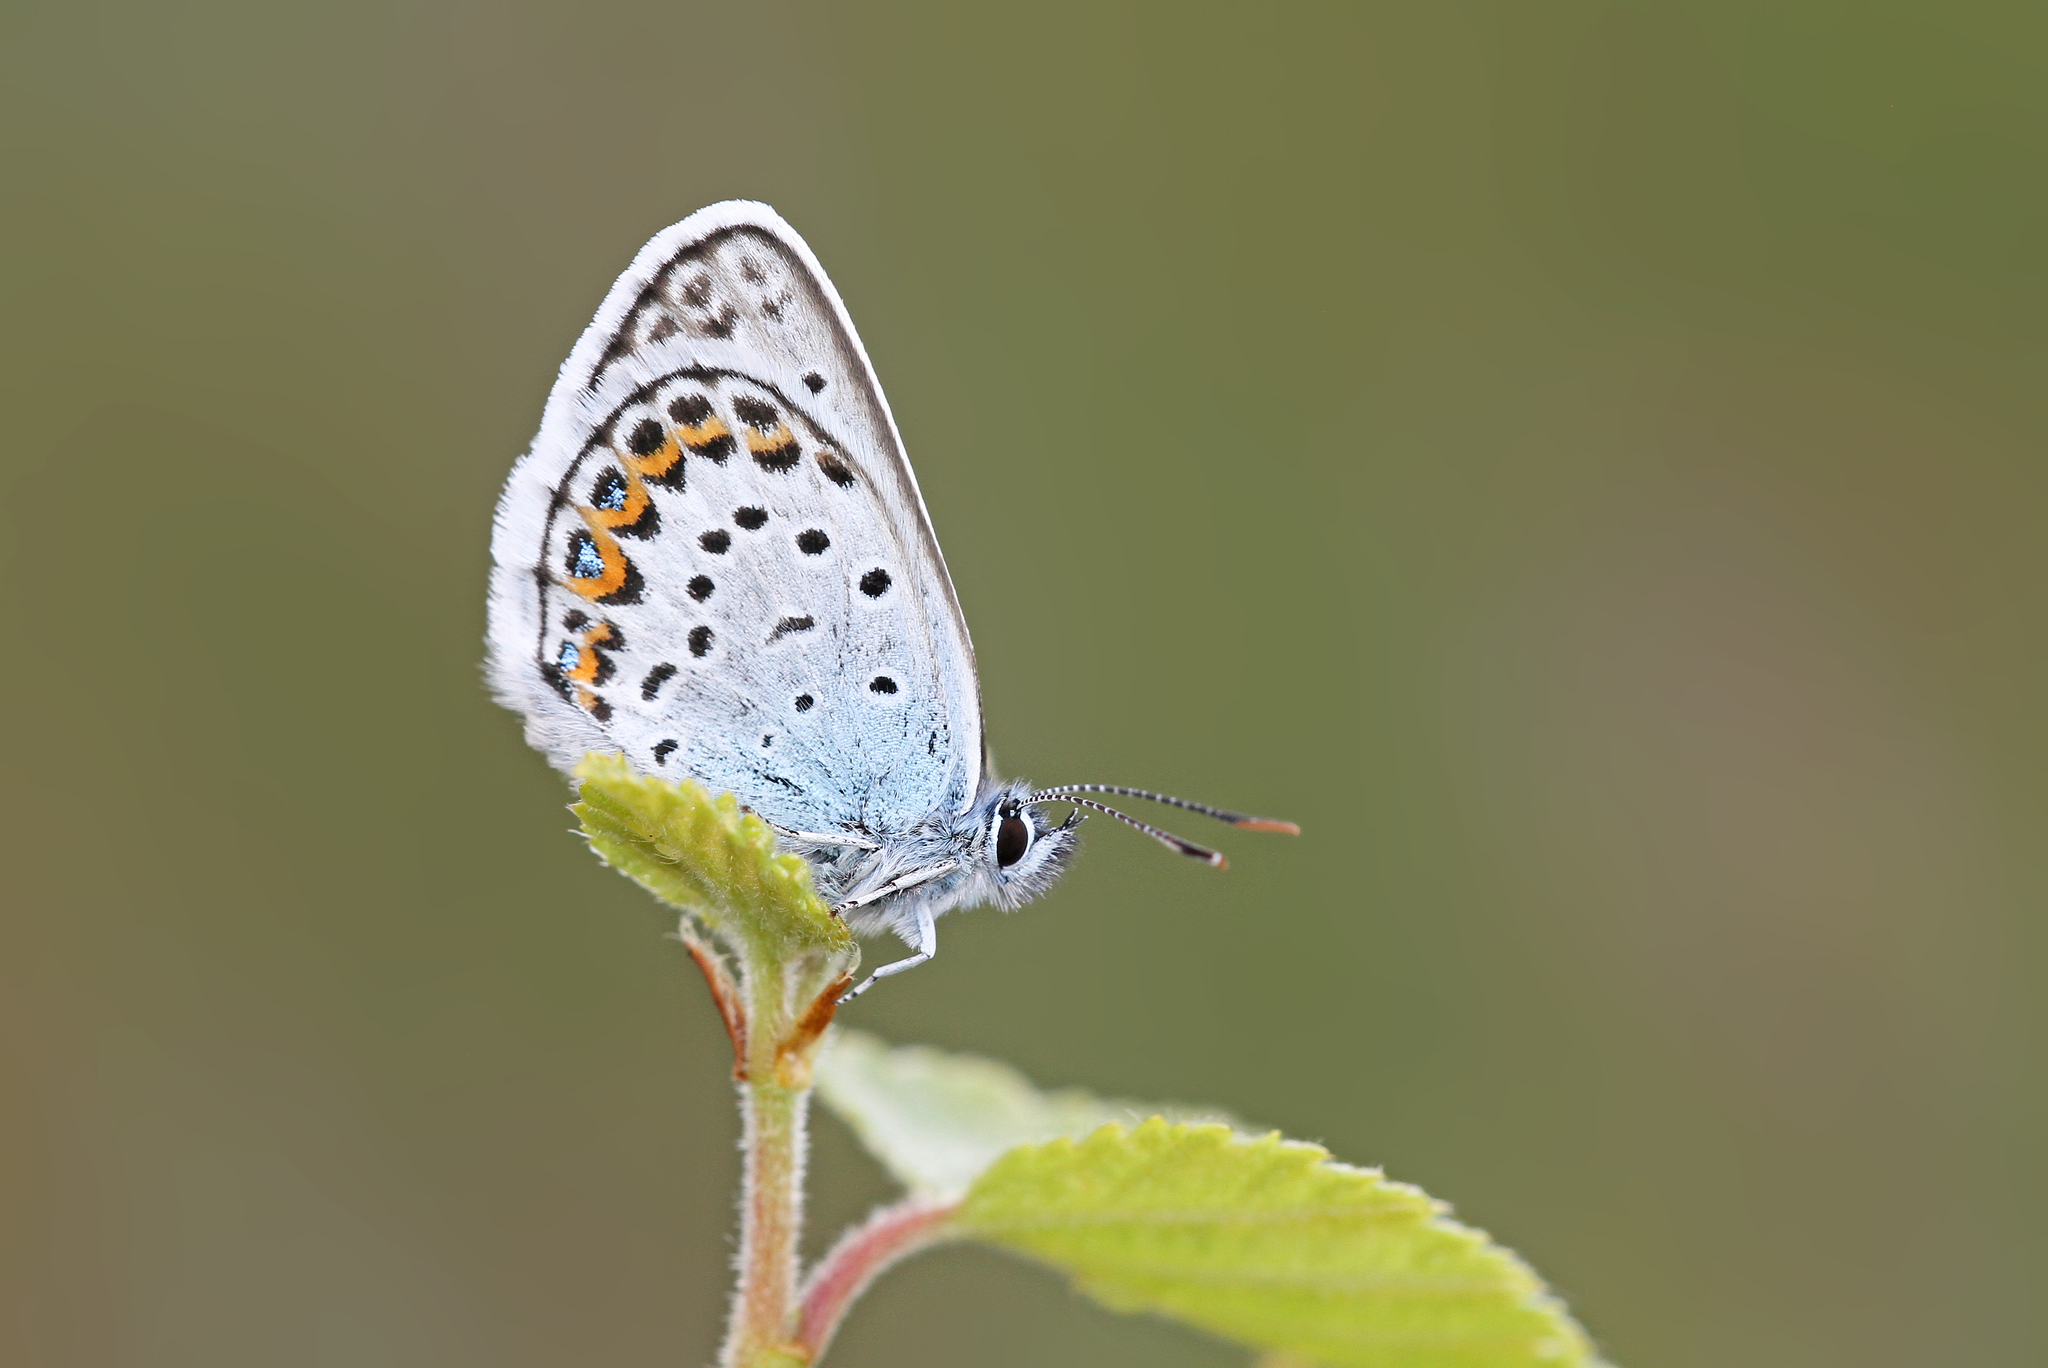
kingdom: Animalia
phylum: Arthropoda
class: Insecta
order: Lepidoptera
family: Lycaenidae
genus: Plebejus
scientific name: Plebejus argus
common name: Silver-studded blue
